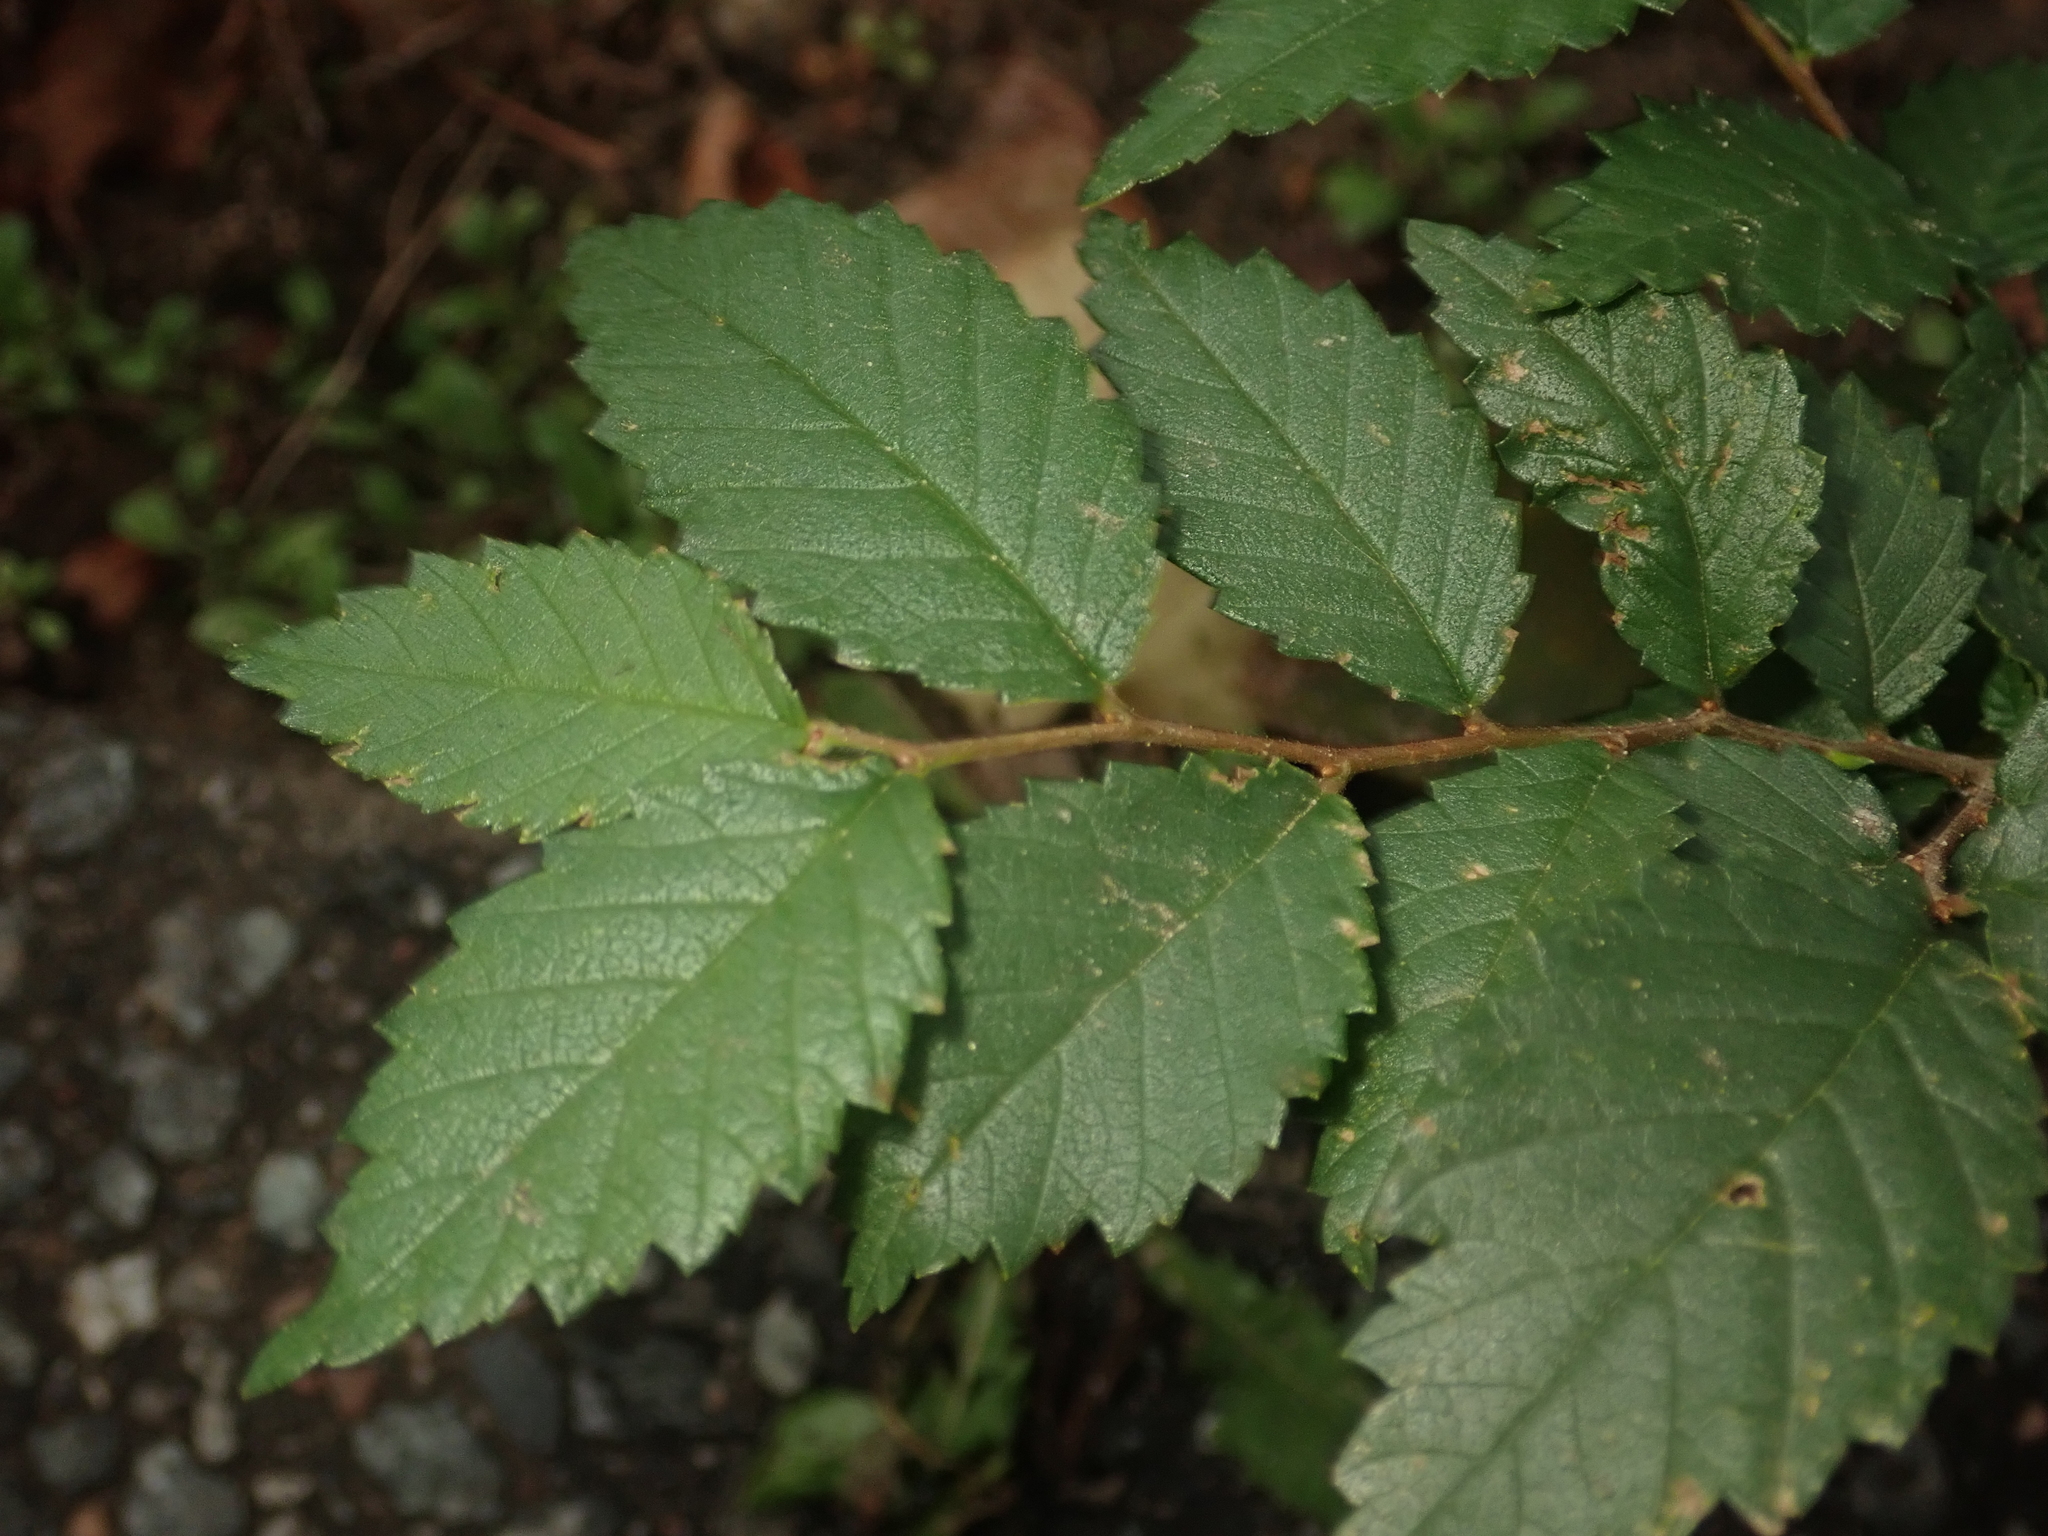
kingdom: Plantae
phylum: Tracheophyta
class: Magnoliopsida
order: Rosales
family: Ulmaceae
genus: Ulmus
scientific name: Ulmus minor
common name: Small-leaved elm
